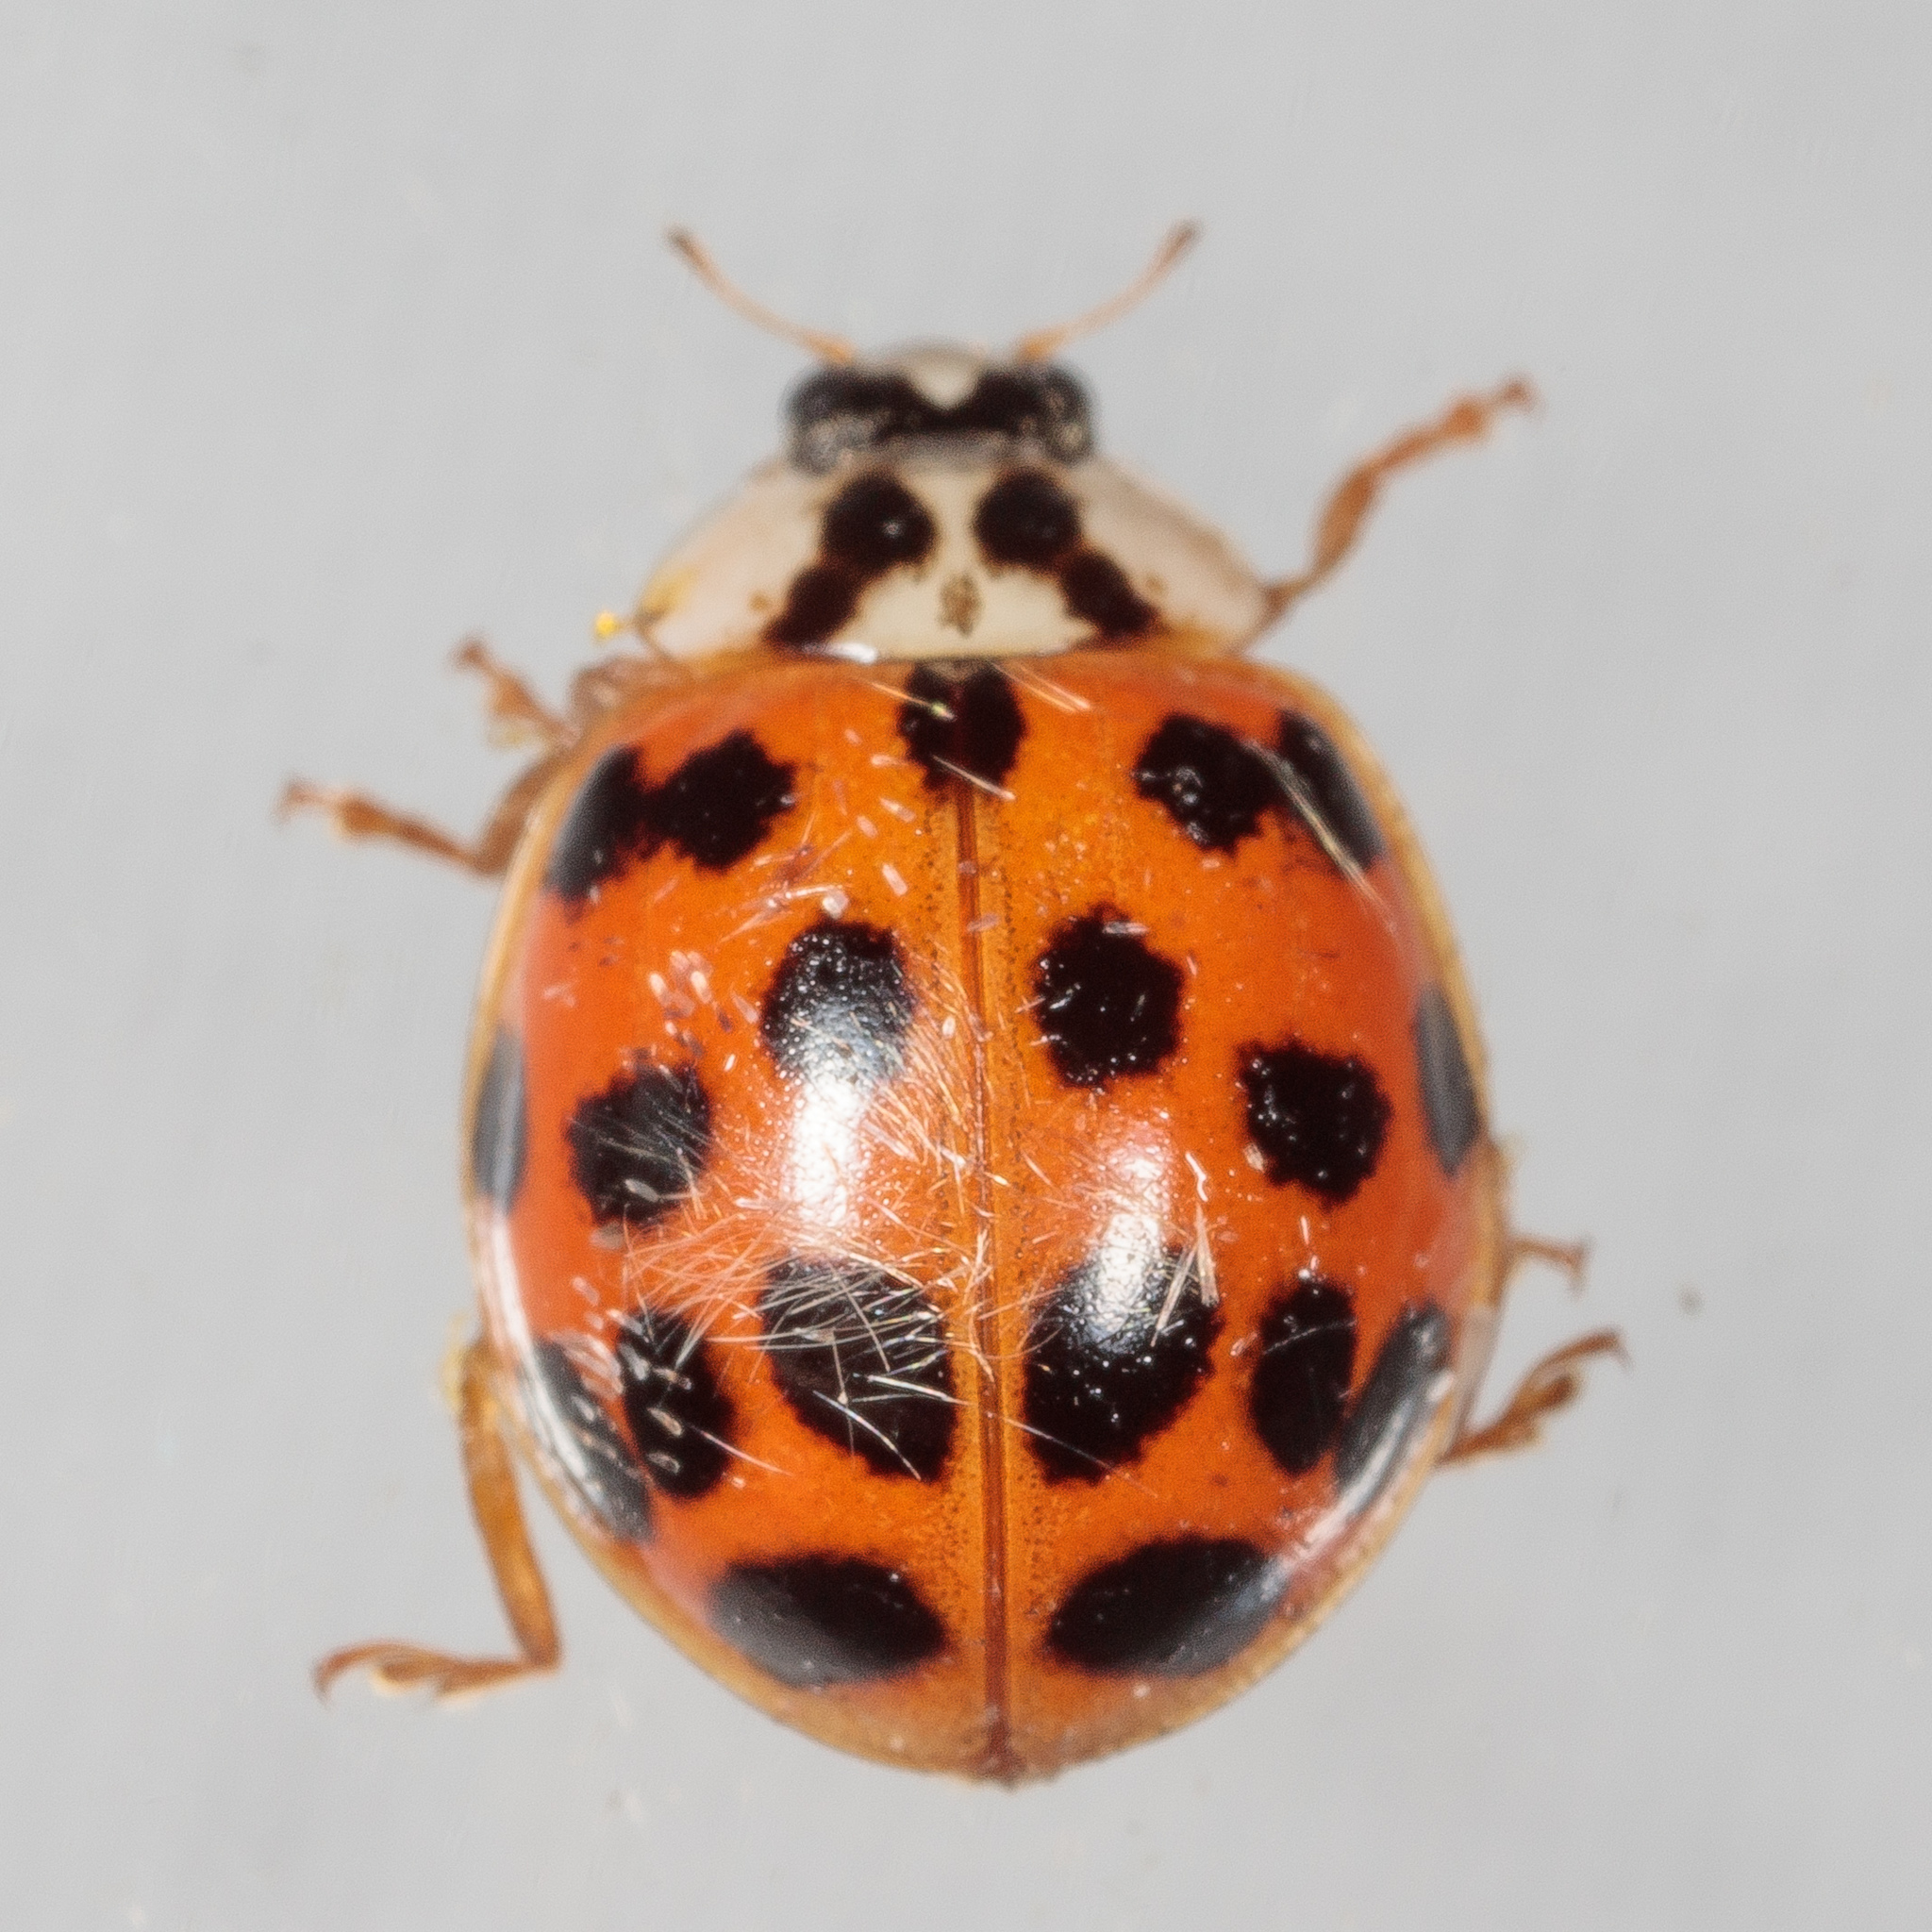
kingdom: Animalia
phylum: Arthropoda
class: Insecta
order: Coleoptera
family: Coccinellidae
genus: Harmonia
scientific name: Harmonia axyridis
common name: Harlequin ladybird
